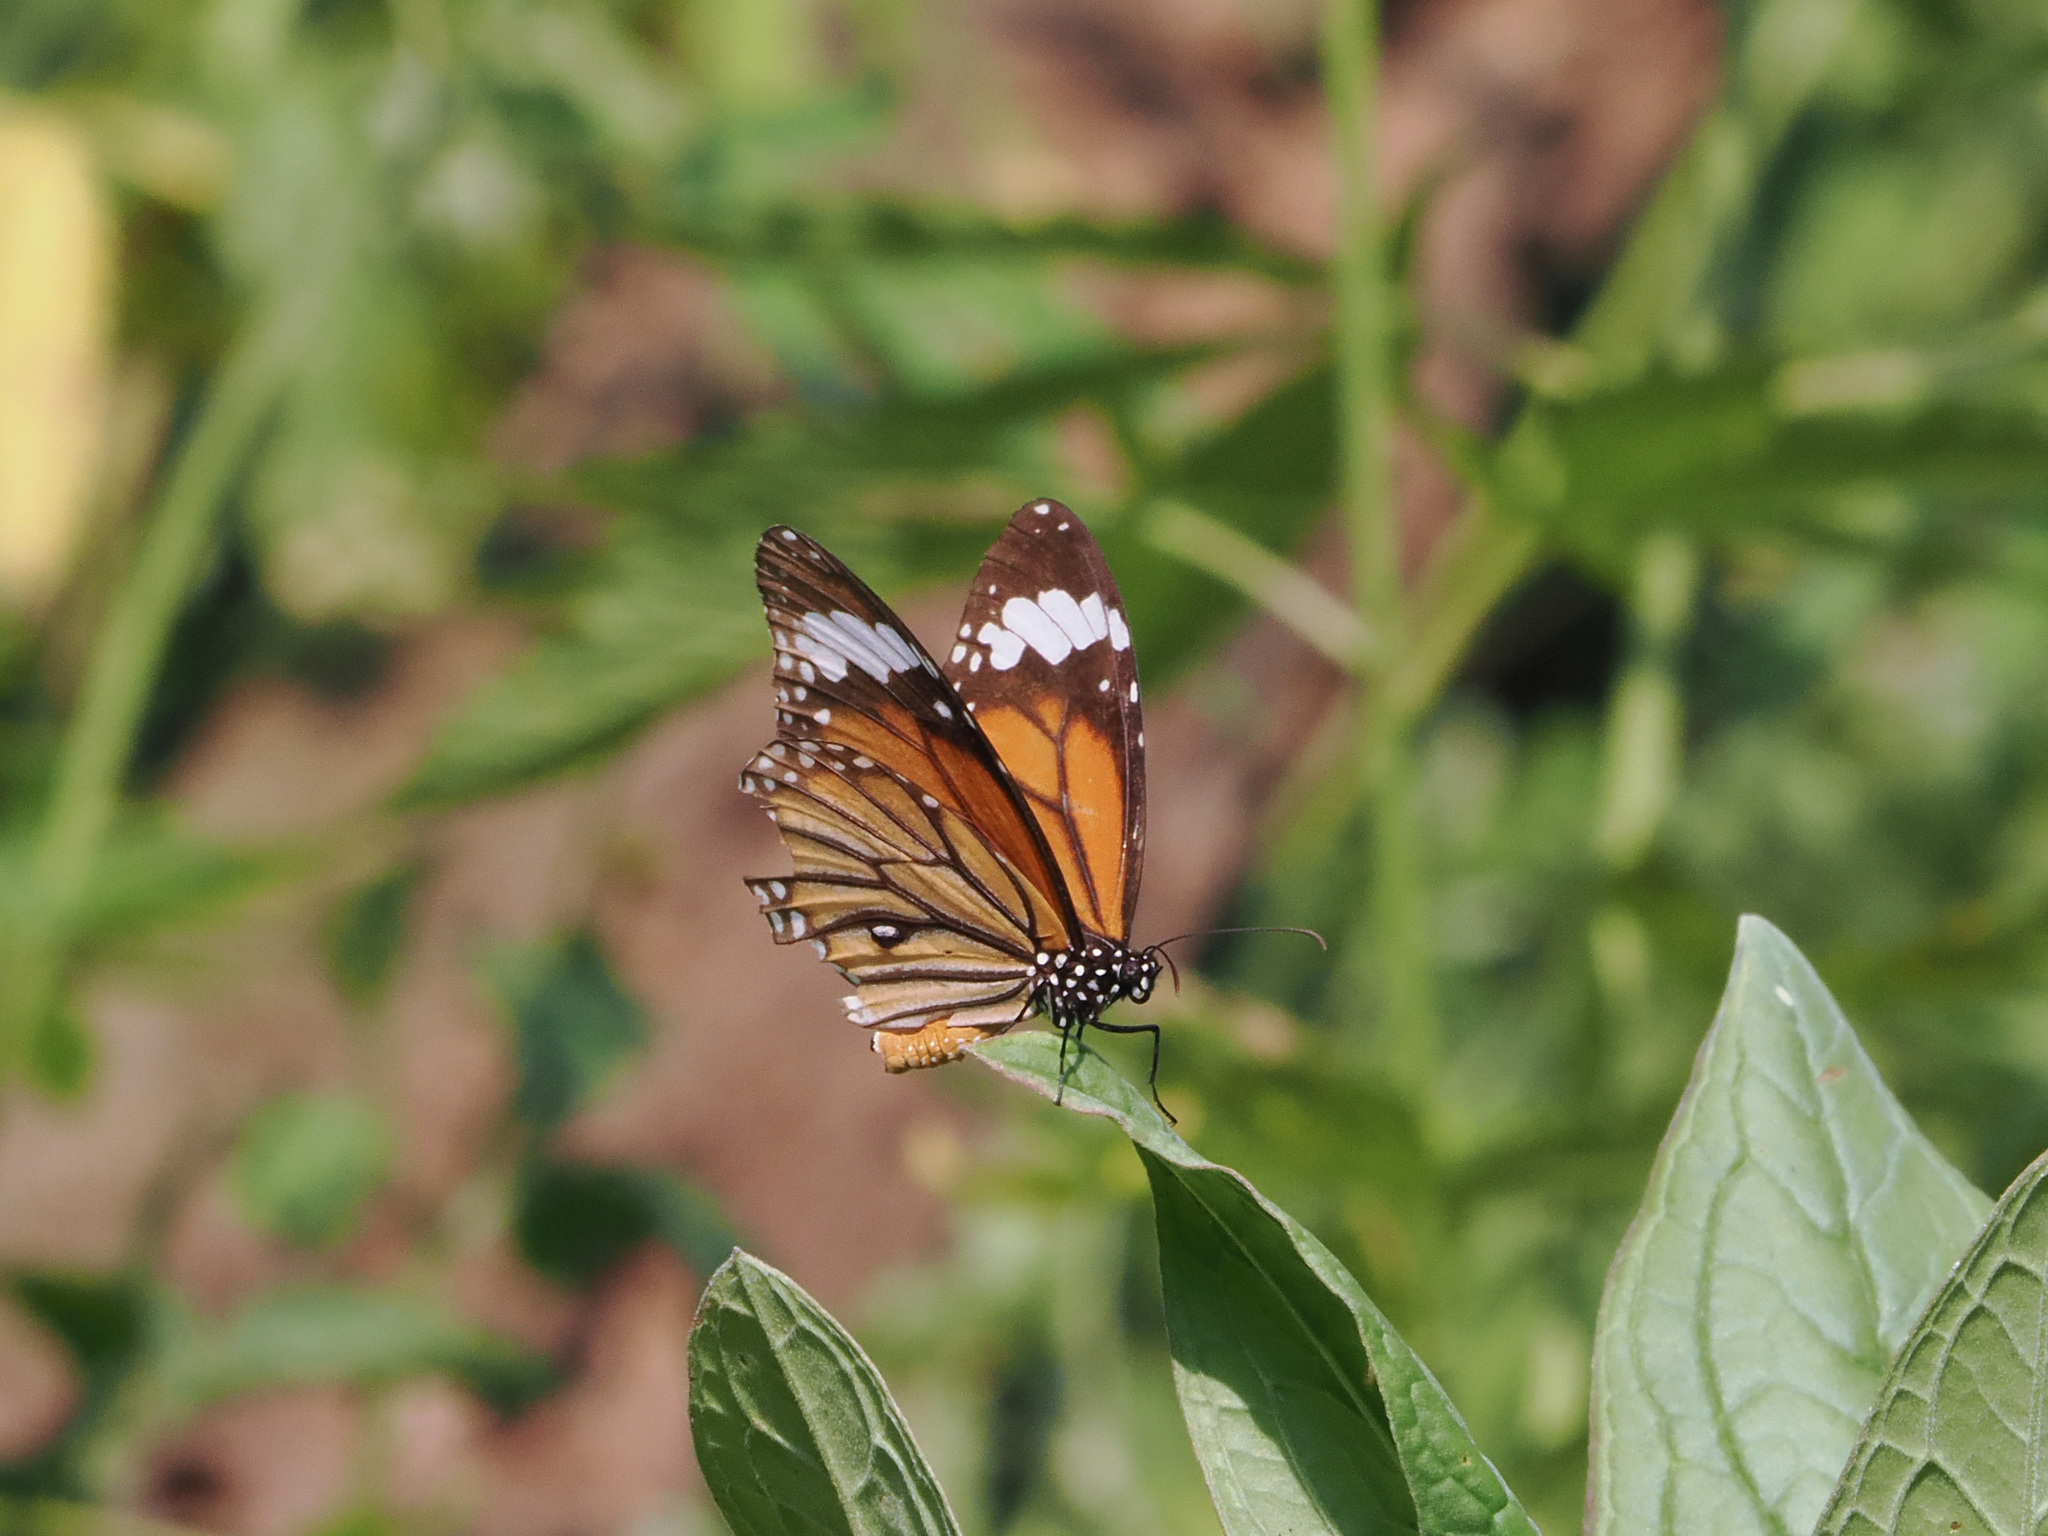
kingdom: Animalia
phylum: Arthropoda
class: Insecta
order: Lepidoptera
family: Nymphalidae
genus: Danaus
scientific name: Danaus genutia
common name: Common tiger butterfly
